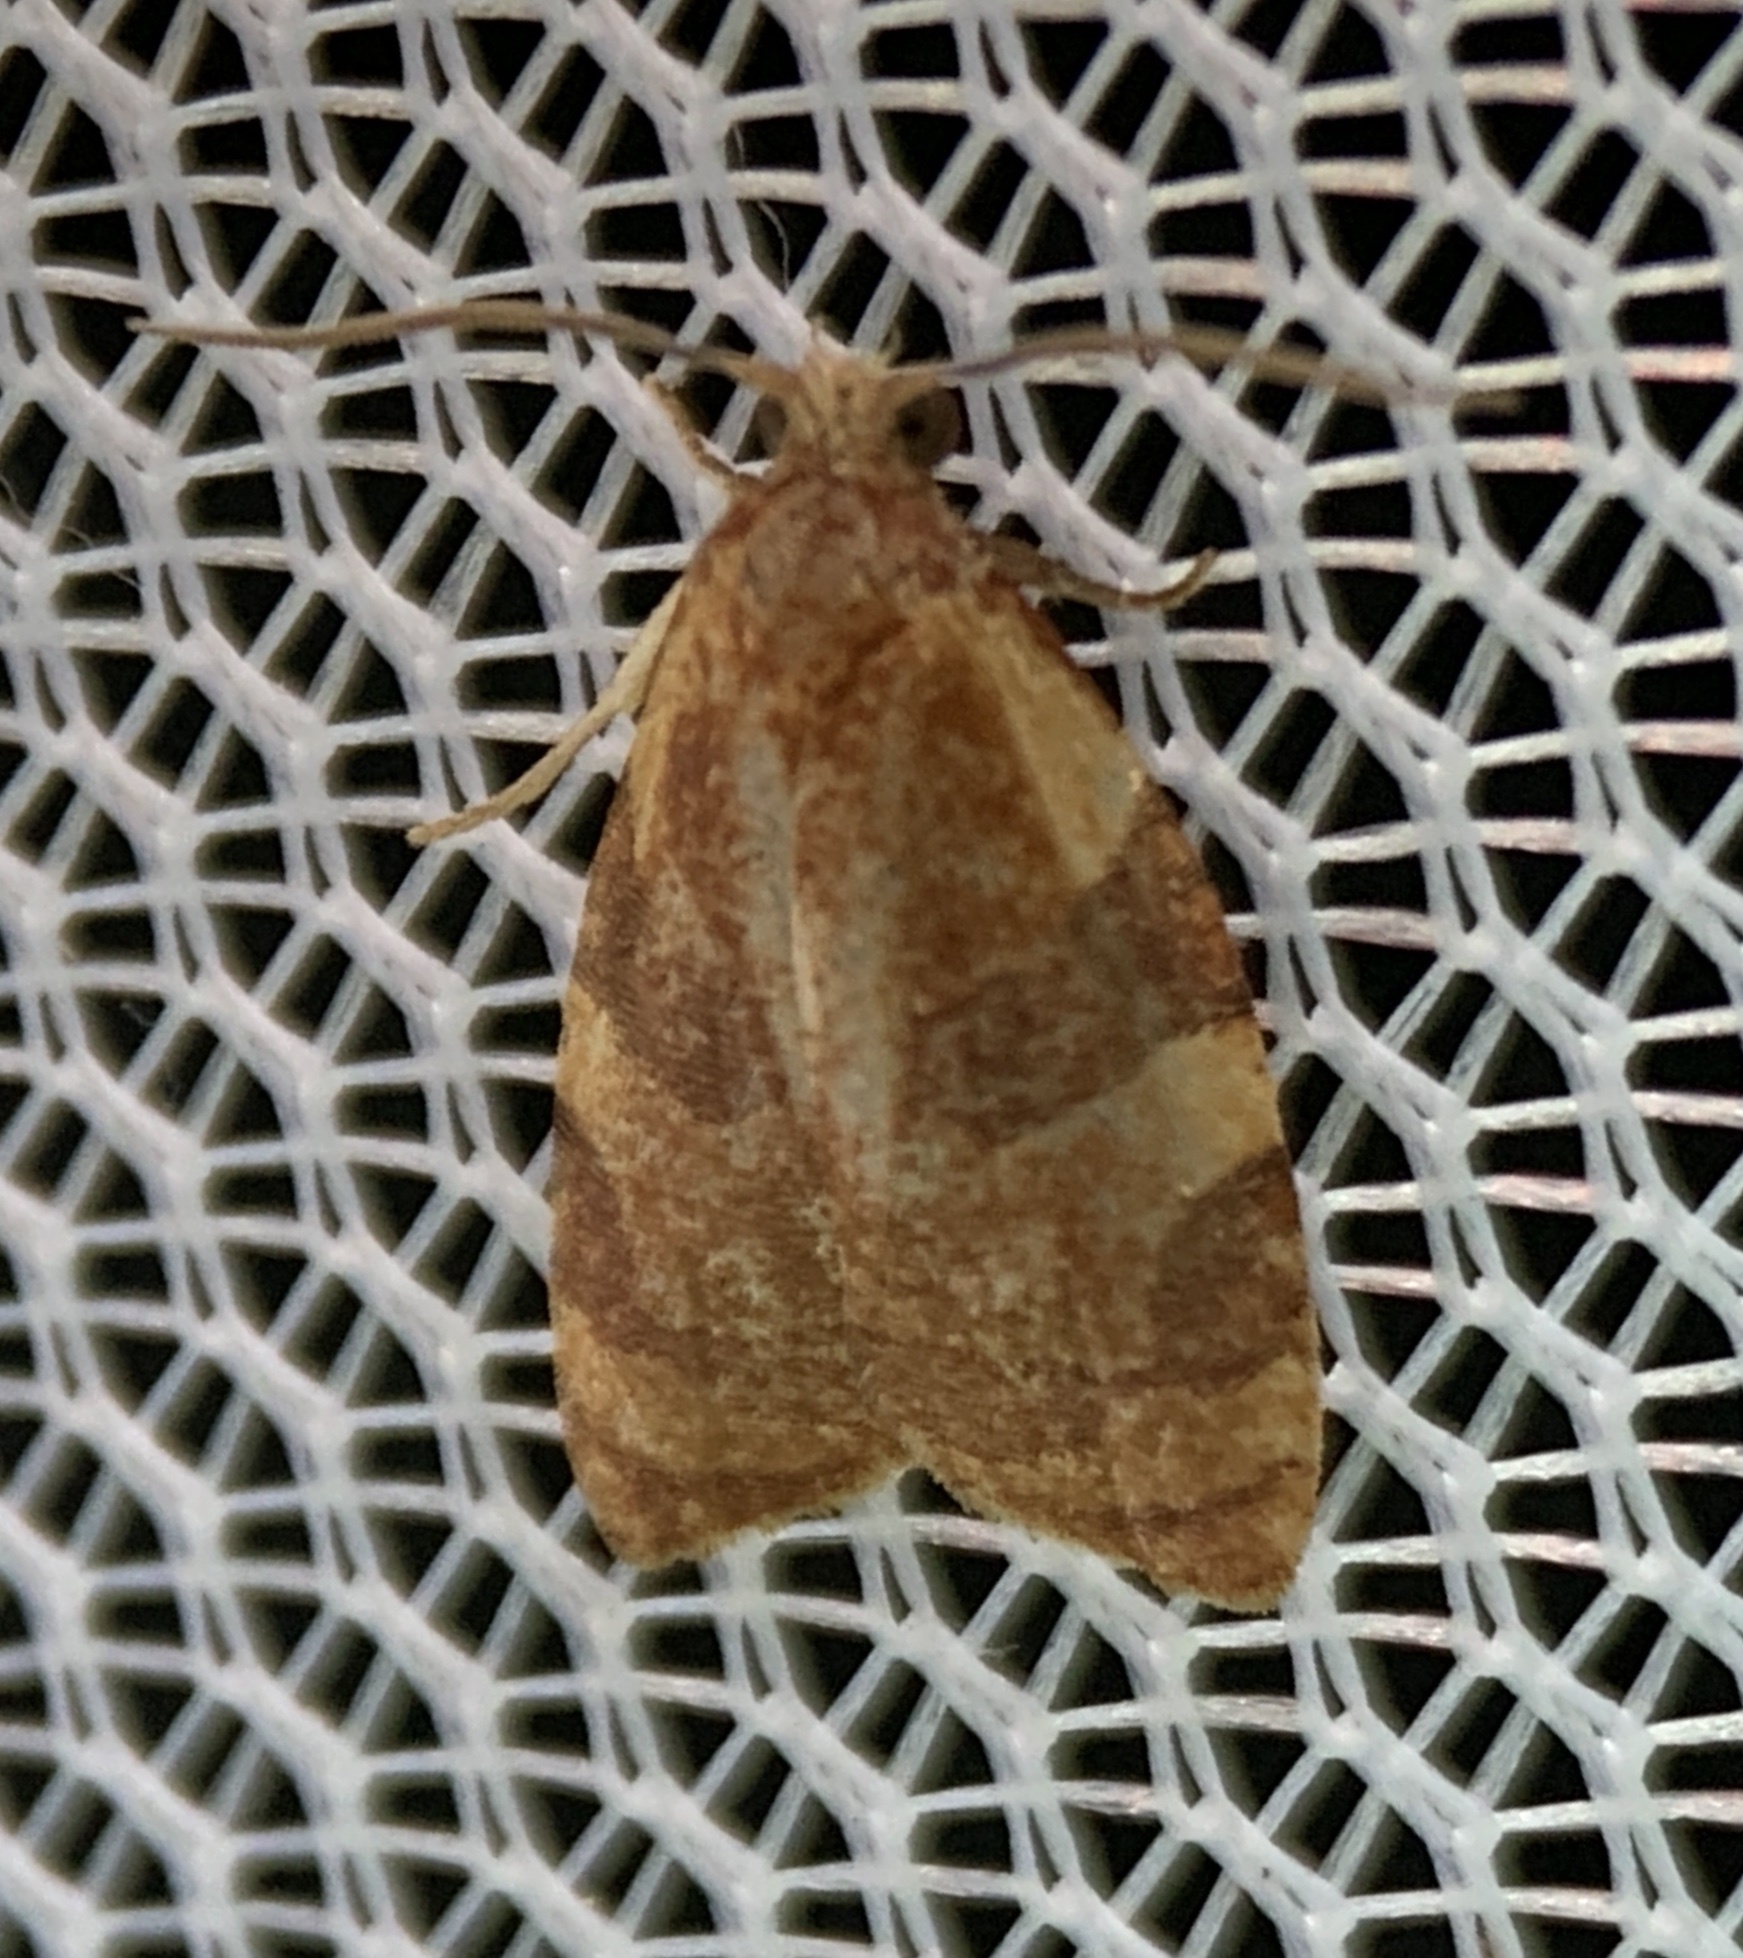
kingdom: Animalia
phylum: Arthropoda
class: Insecta
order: Lepidoptera
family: Tortricidae
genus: Cenopis
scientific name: Cenopis diluticostana
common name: Spring dead-leaf roller moth
